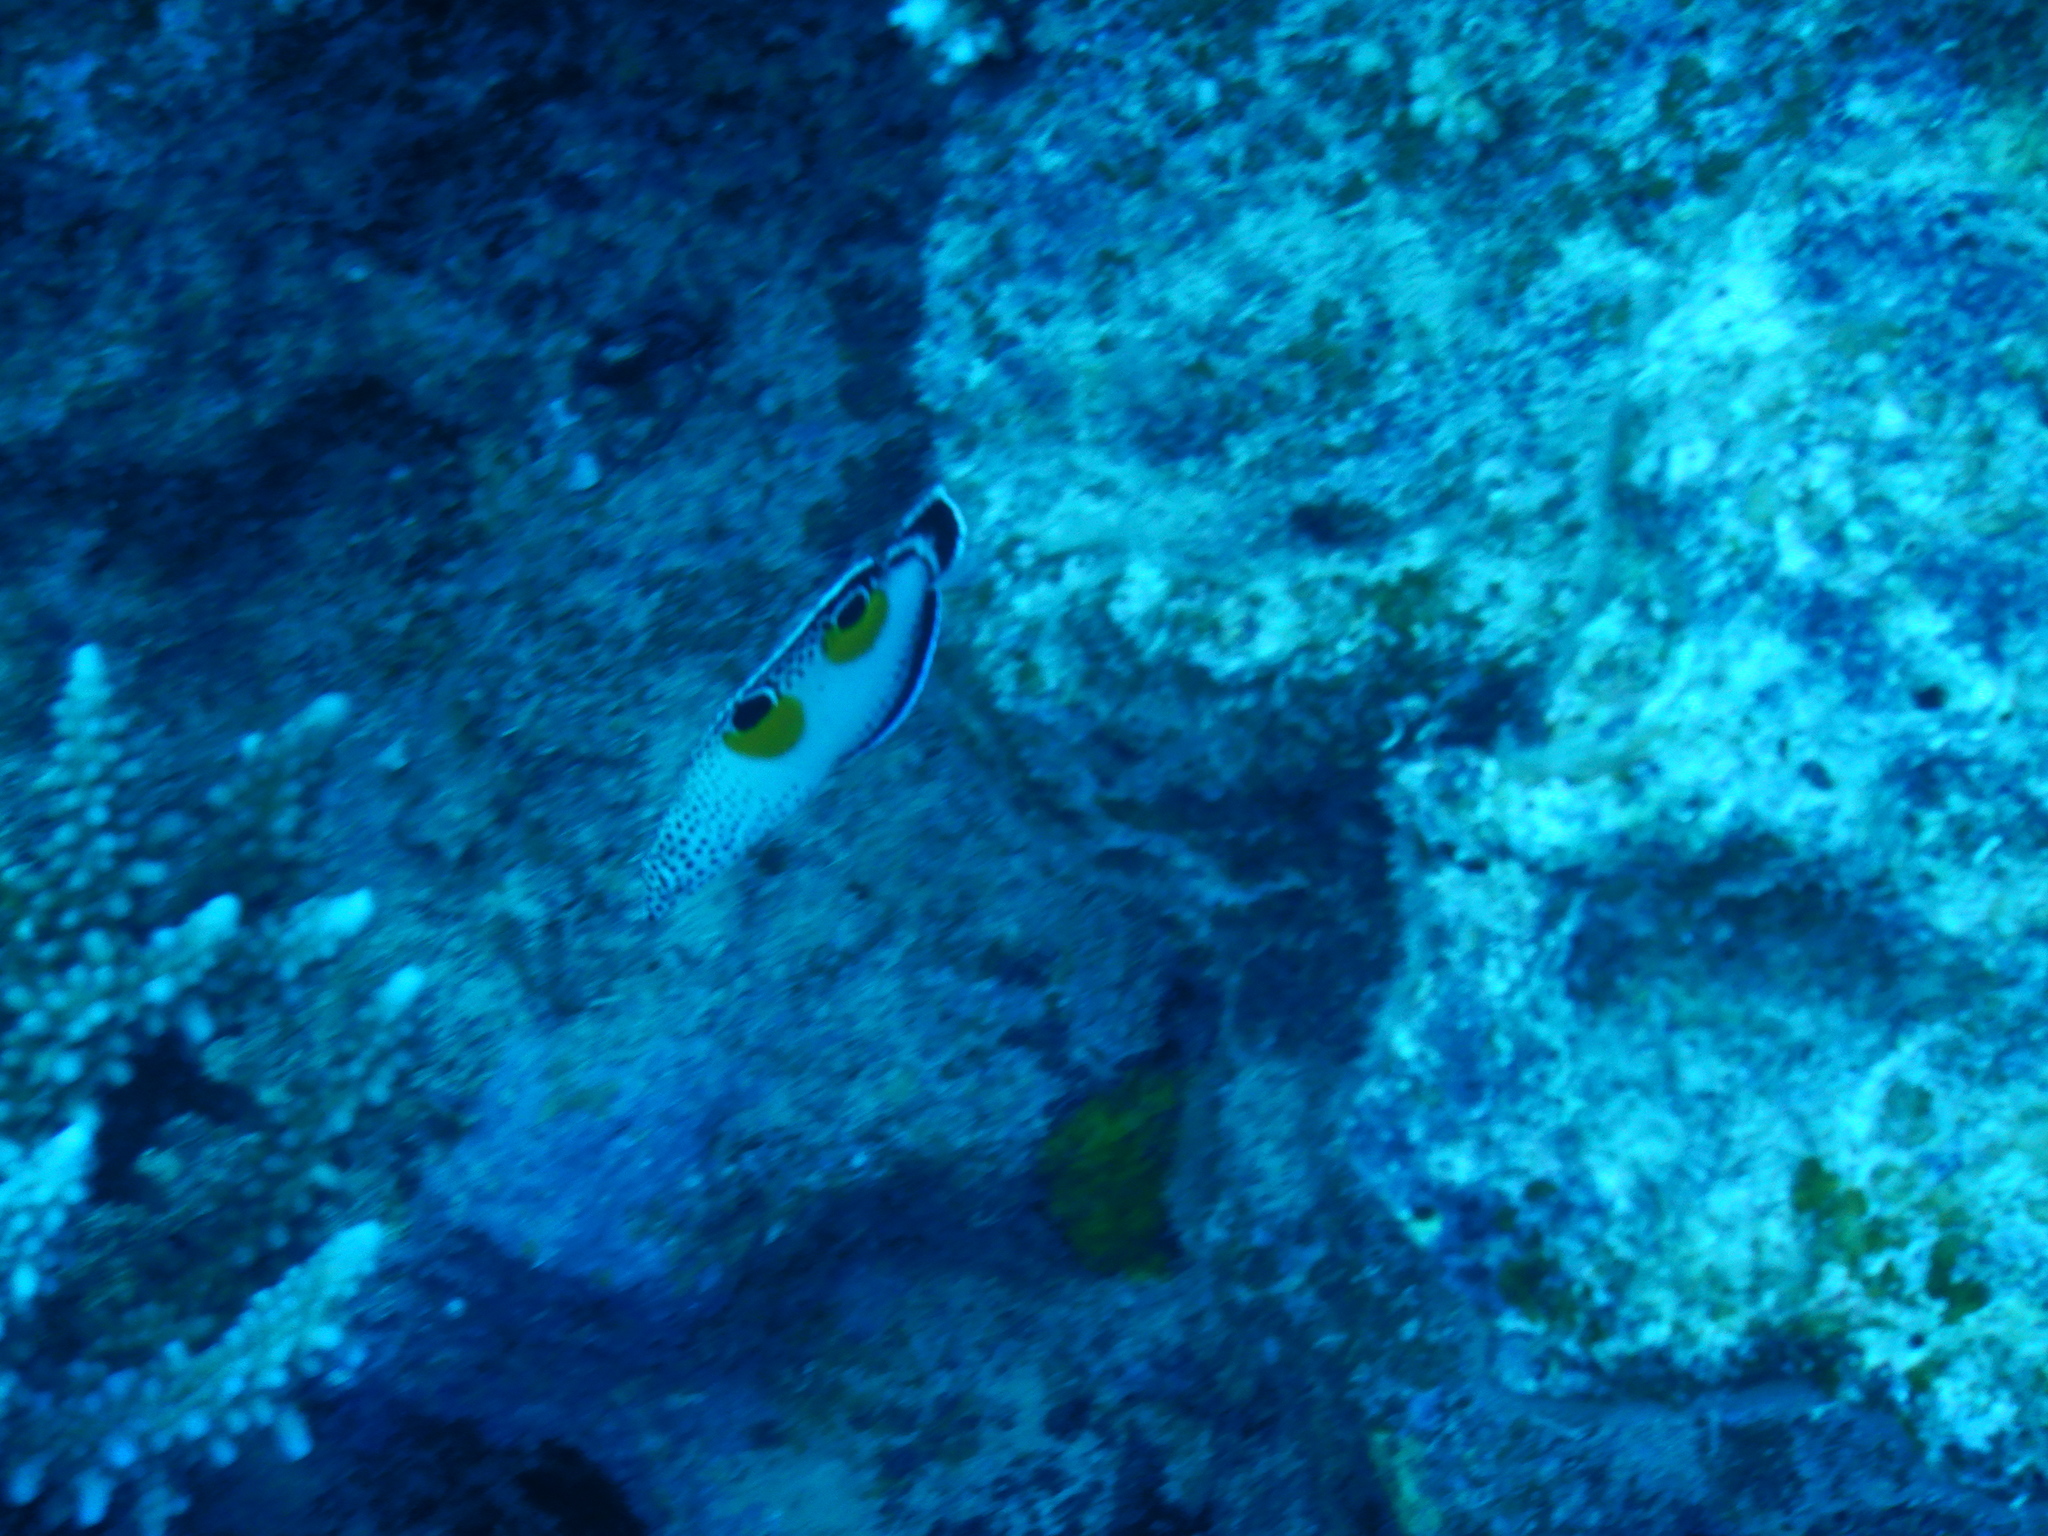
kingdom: Animalia
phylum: Chordata
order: Perciformes
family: Labridae
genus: Coris
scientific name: Coris aygula
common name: Clown coris
